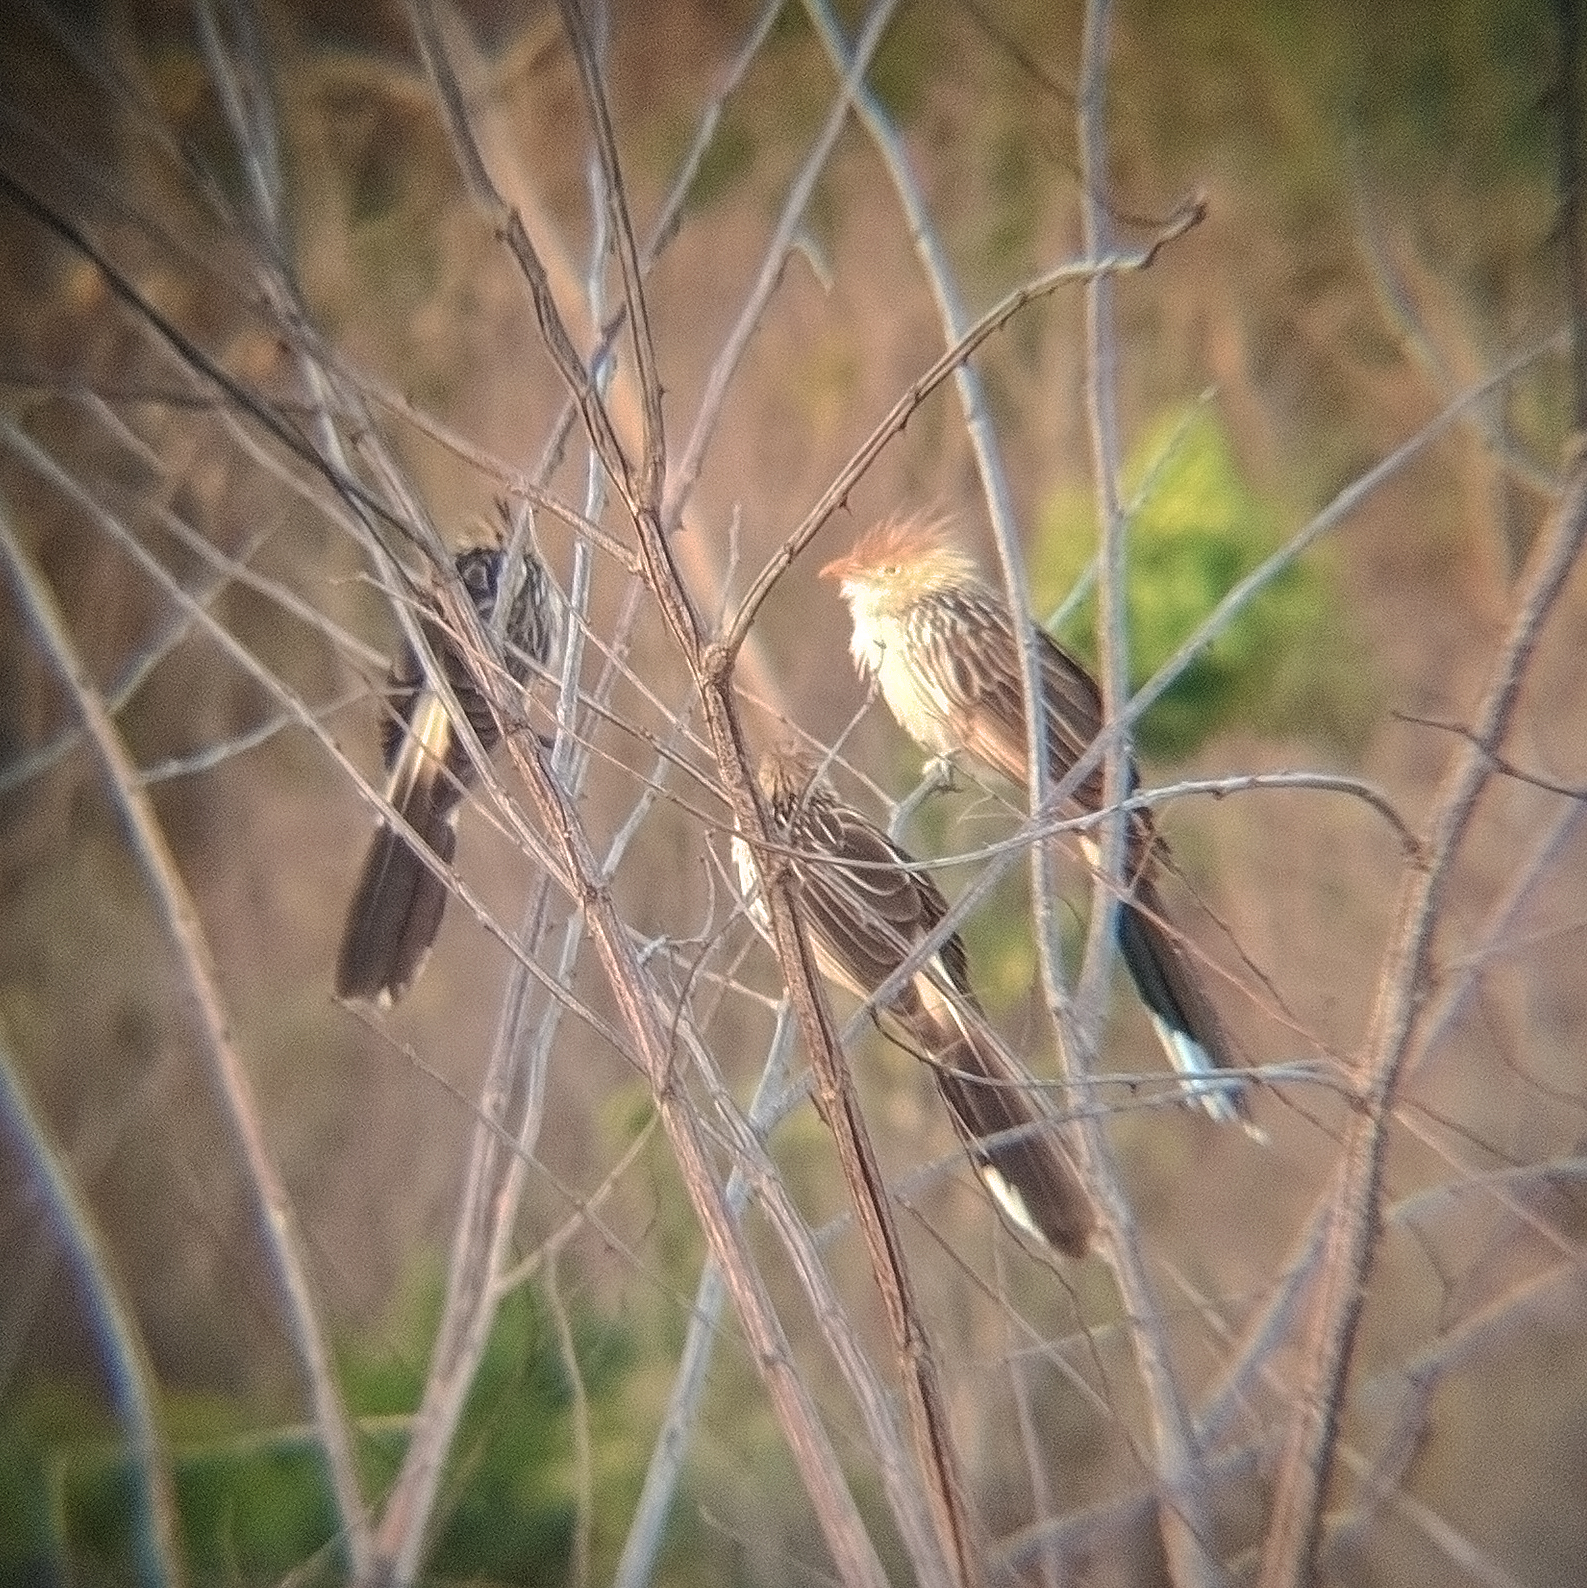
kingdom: Animalia
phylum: Chordata
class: Aves
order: Cuculiformes
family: Cuculidae
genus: Guira
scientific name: Guira guira
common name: Guira cuckoo
